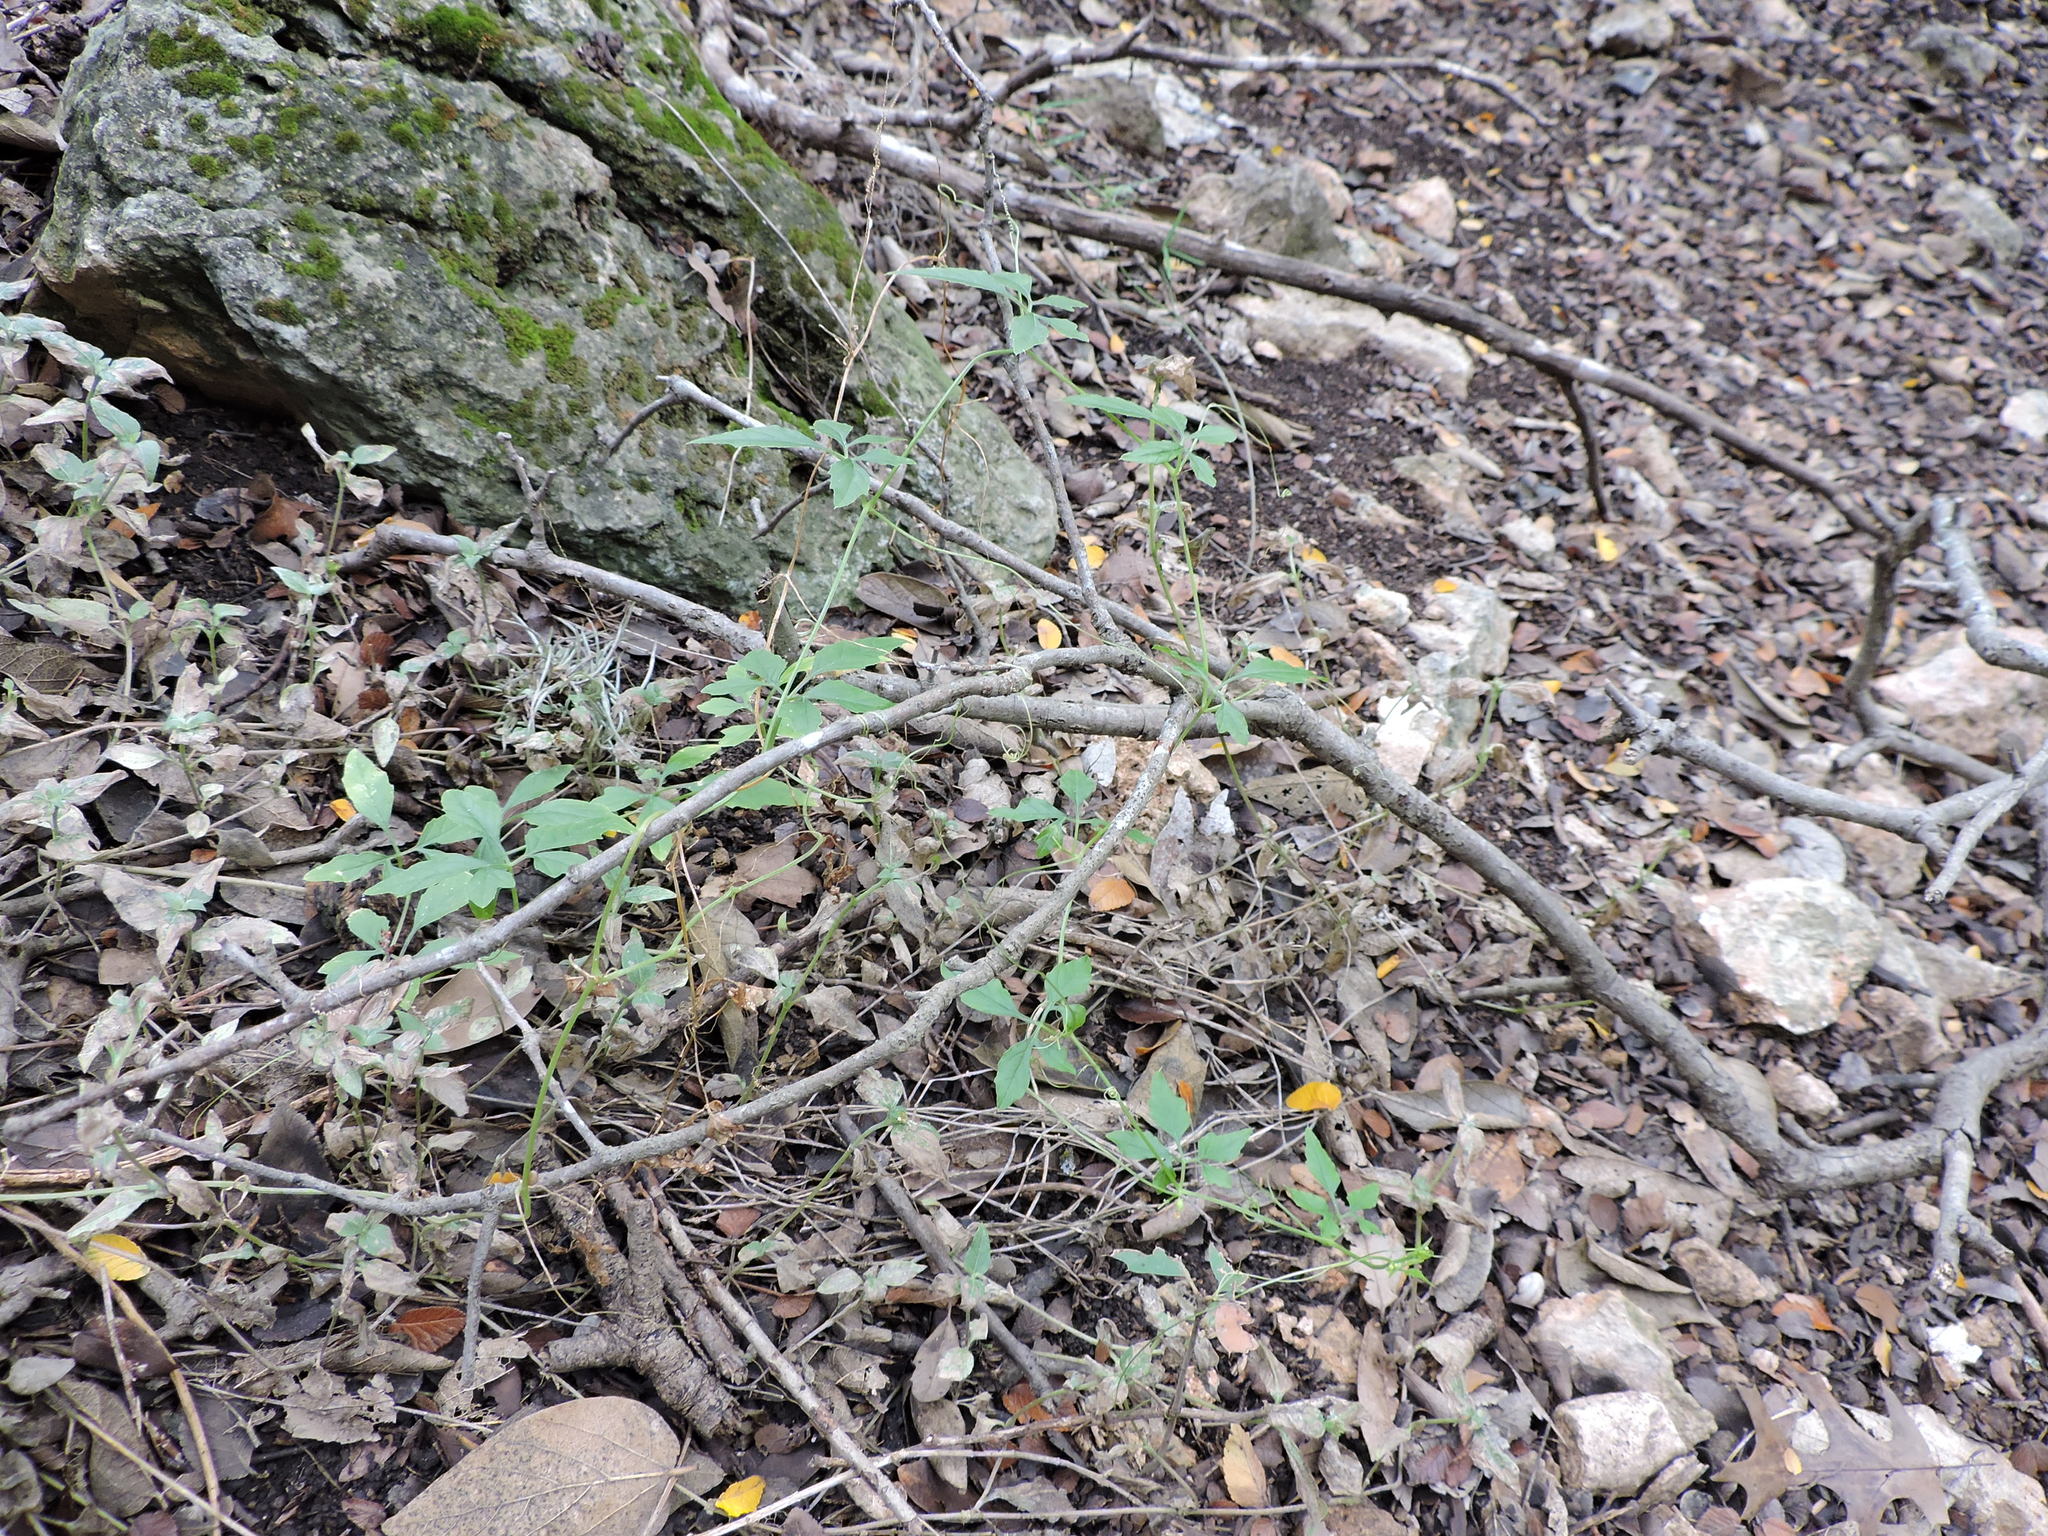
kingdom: Plantae
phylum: Tracheophyta
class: Magnoliopsida
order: Cucurbitales
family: Cucurbitaceae
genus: Cyclanthera
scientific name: Cyclanthera naudiniana
